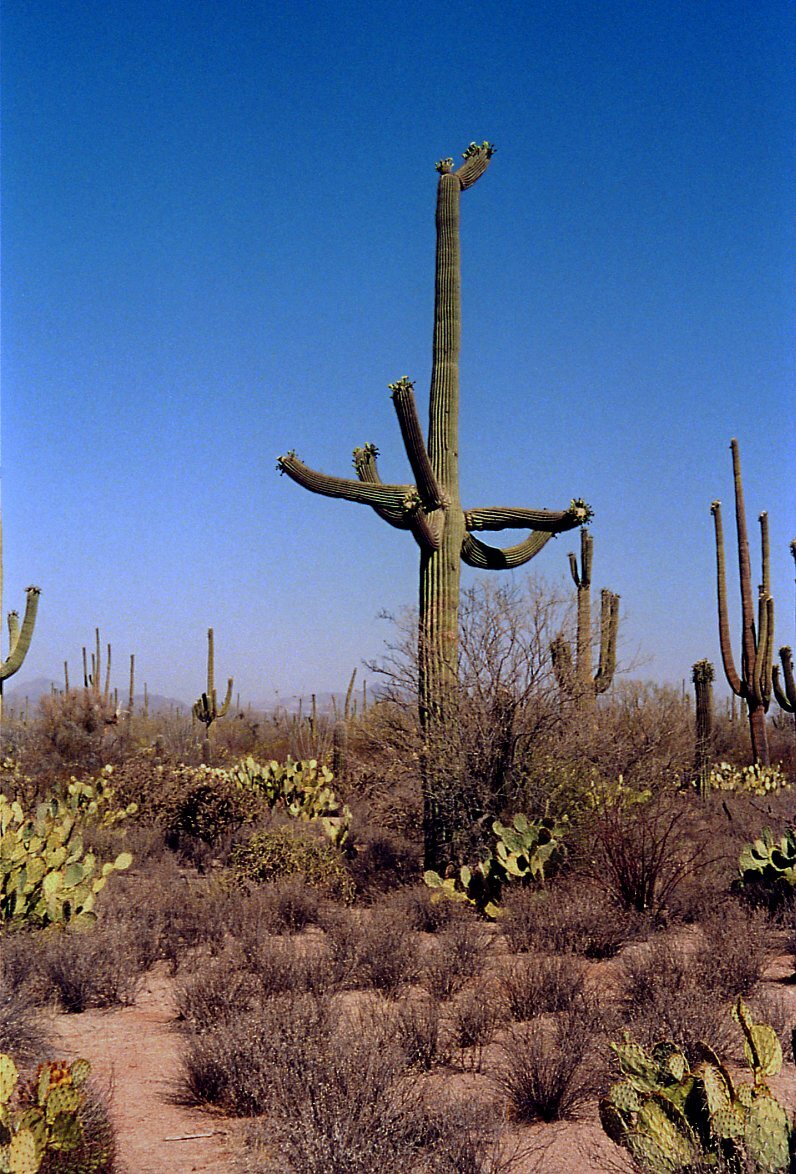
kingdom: Plantae
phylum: Tracheophyta
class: Magnoliopsida
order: Caryophyllales
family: Cactaceae
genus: Carnegiea
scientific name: Carnegiea gigantea
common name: Saguaro
